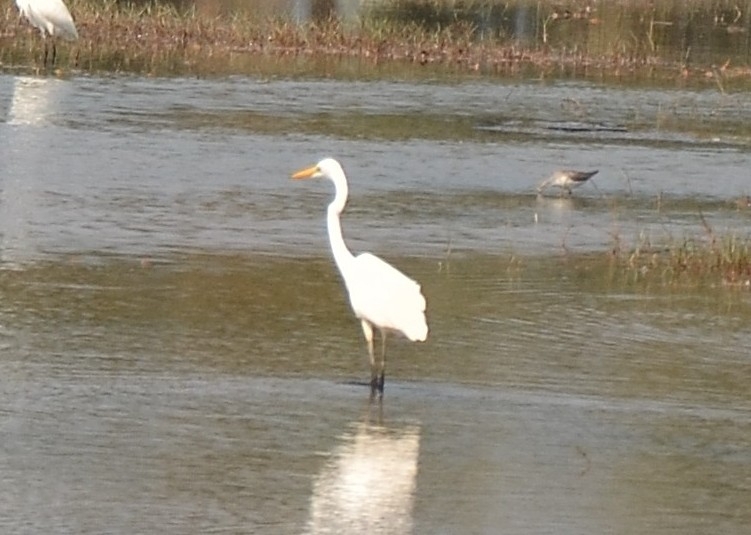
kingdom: Animalia
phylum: Chordata
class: Aves
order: Pelecaniformes
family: Ardeidae
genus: Ardea
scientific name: Ardea alba
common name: Great egret
